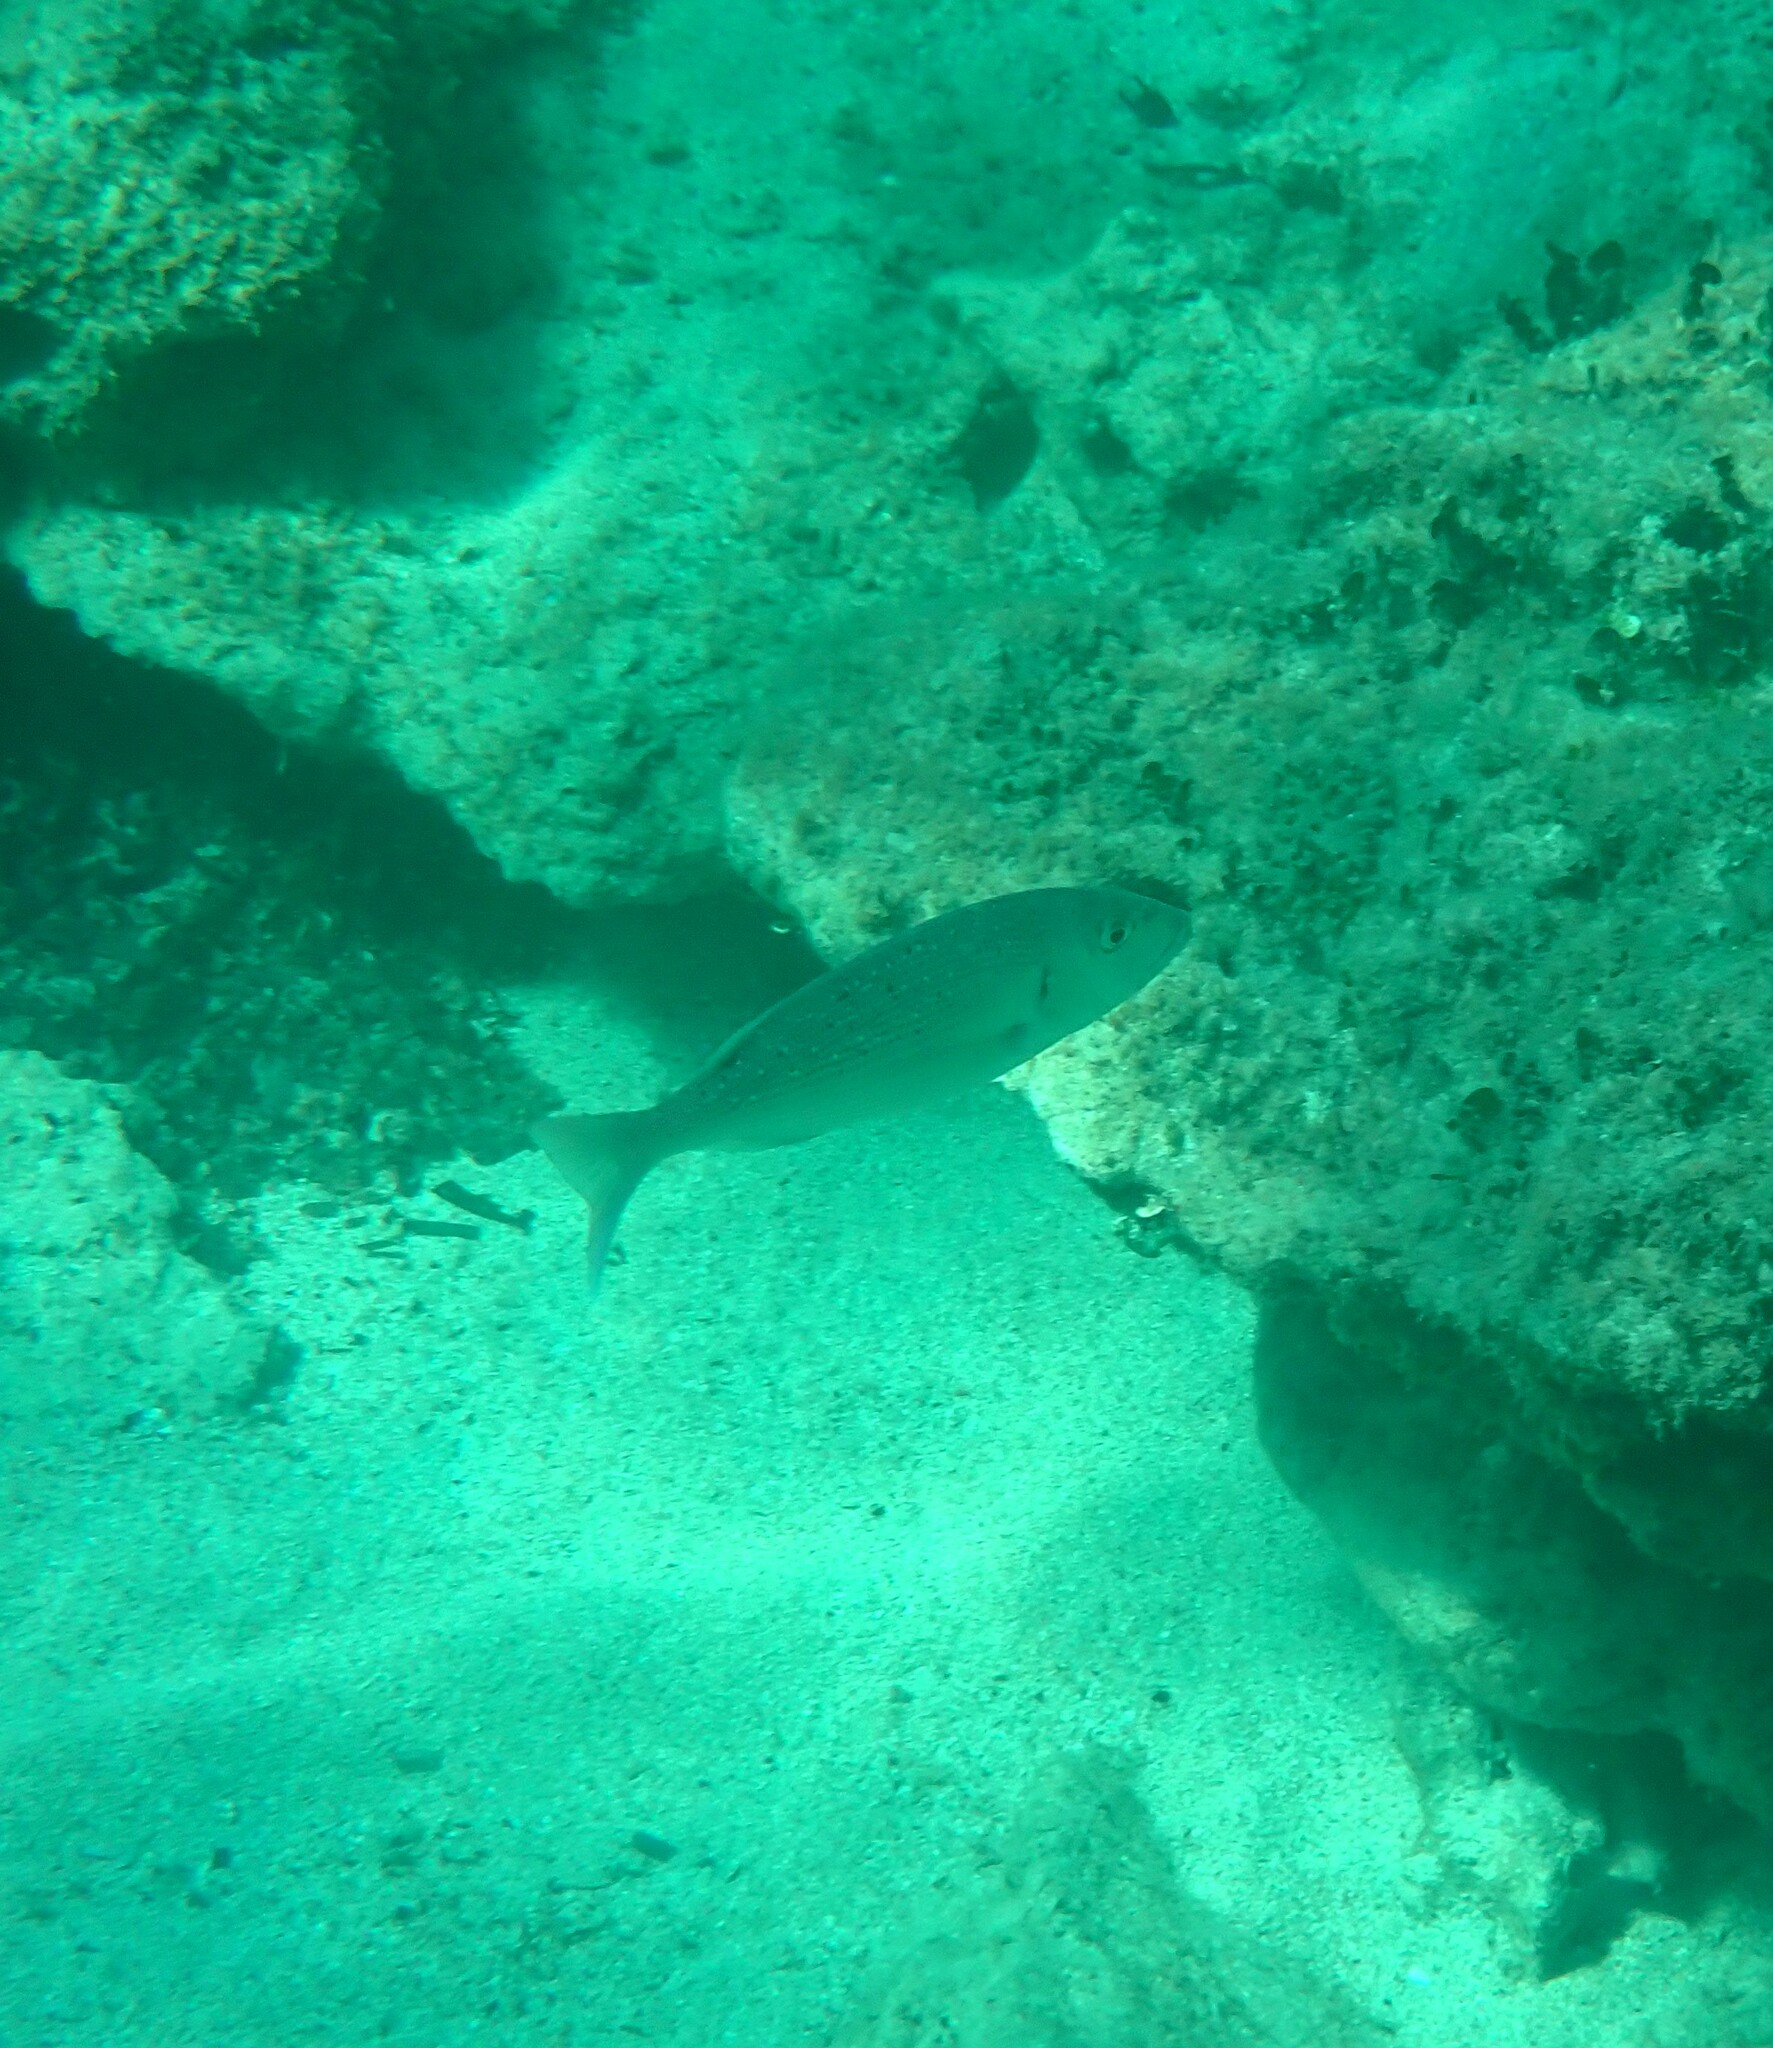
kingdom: Animalia
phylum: Chordata
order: Perciformes
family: Sparidae
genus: Dentex
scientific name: Dentex dentex
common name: Dentex
